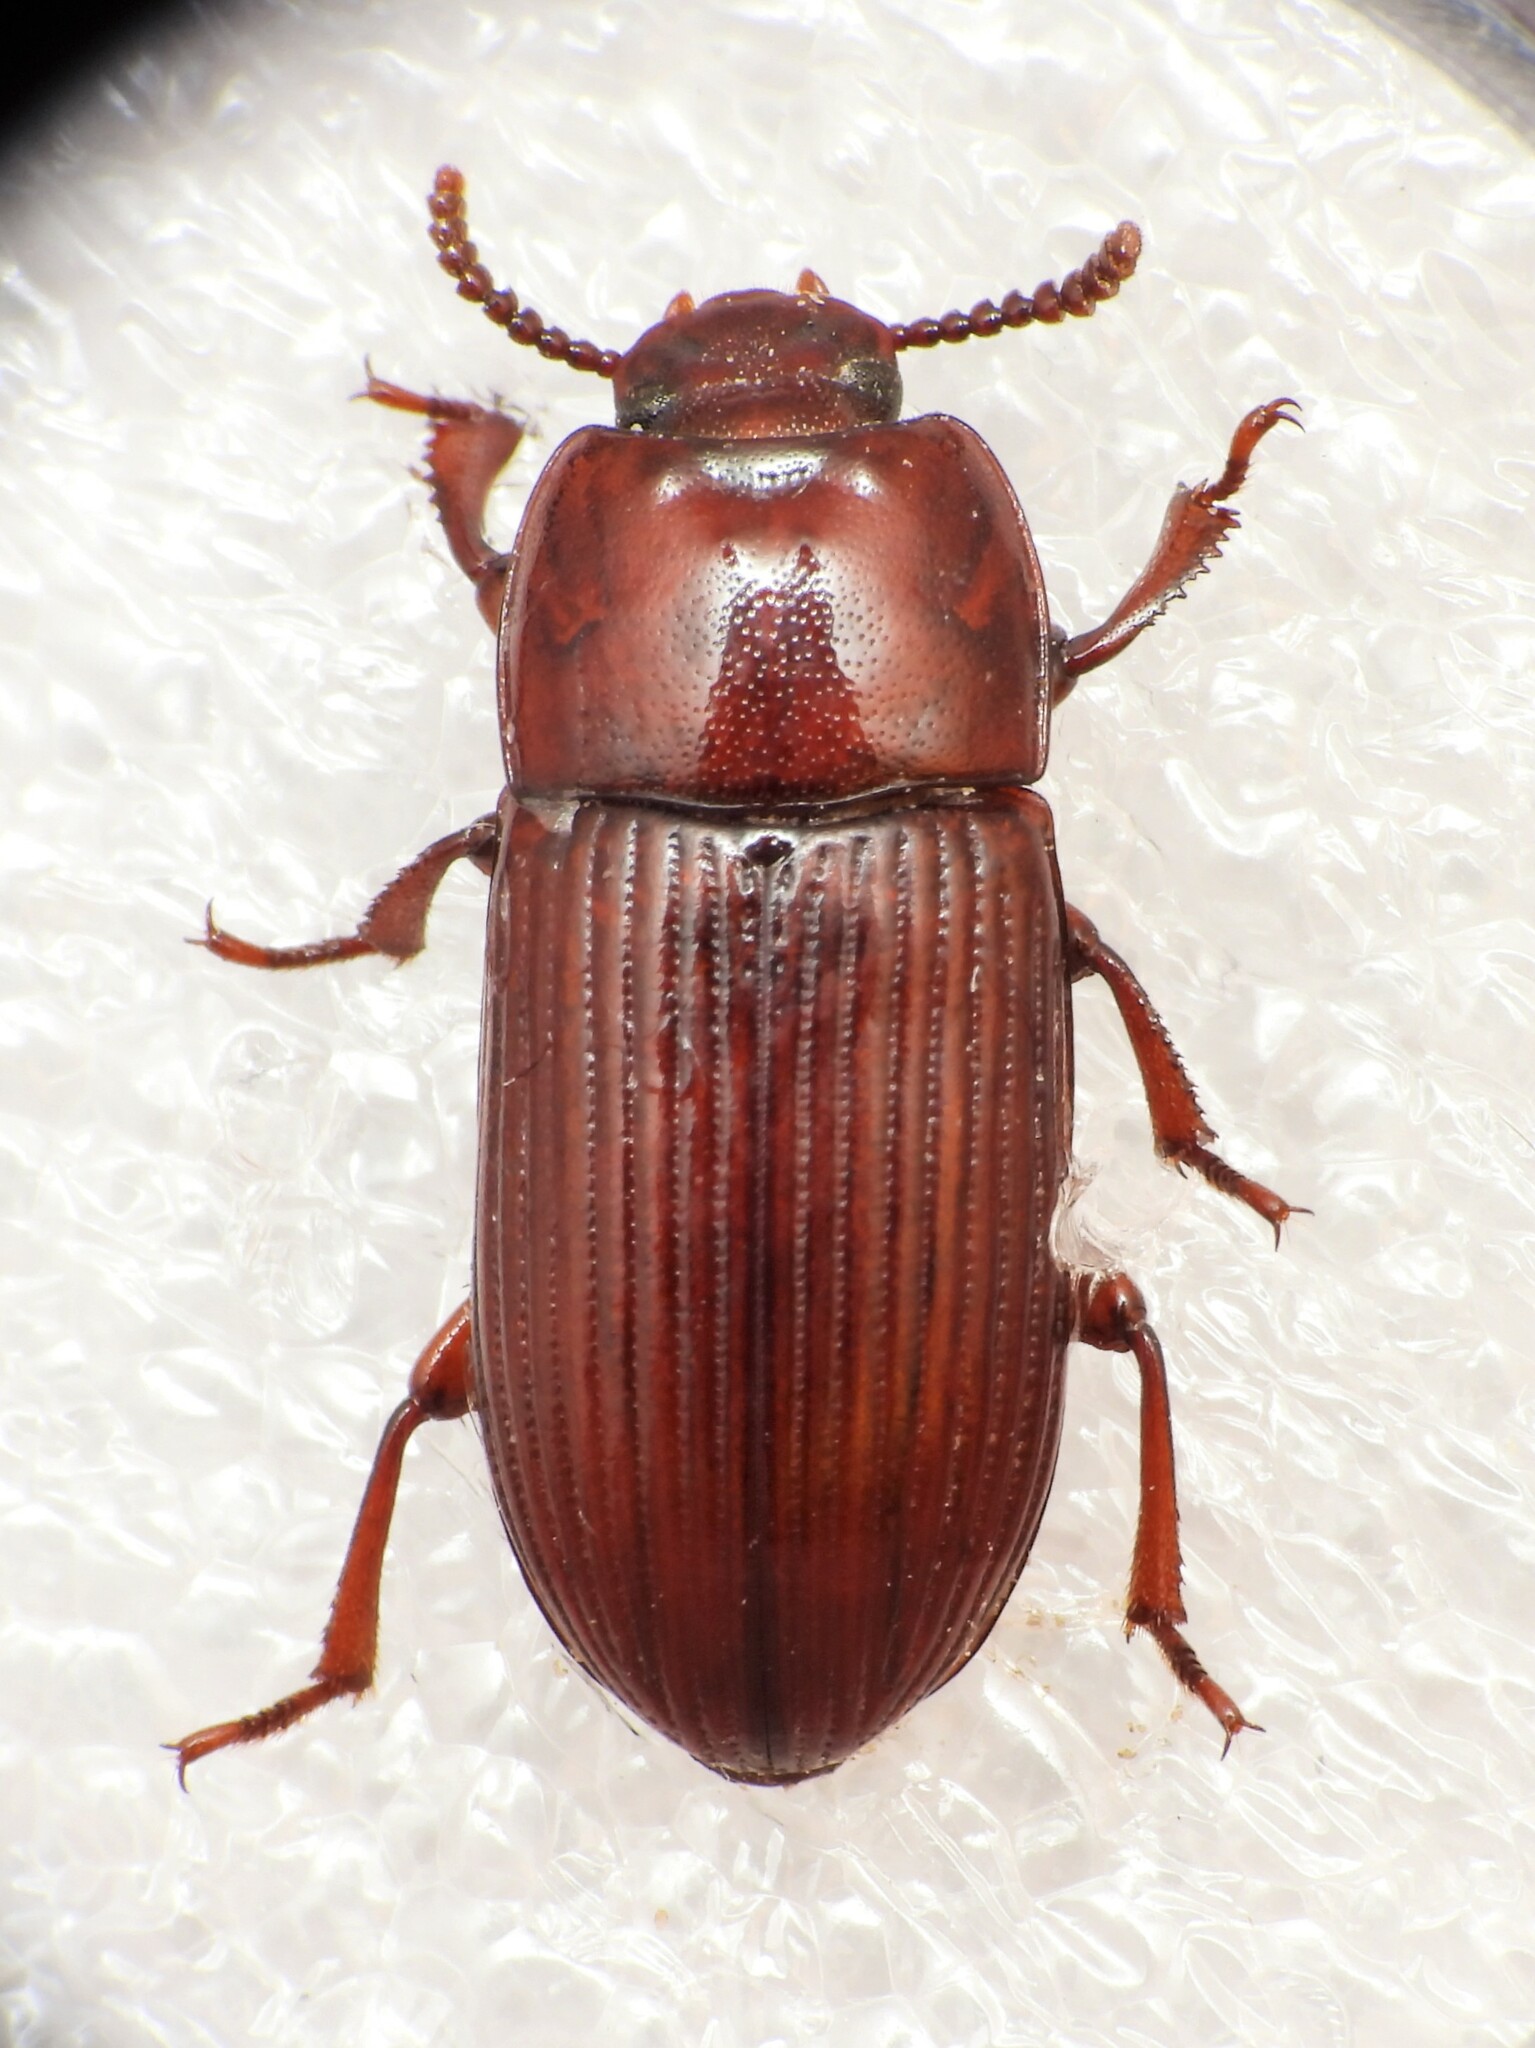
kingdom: Animalia
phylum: Arthropoda
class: Insecta
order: Coleoptera
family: Tenebrionidae
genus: Uloma
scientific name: Uloma culinaris
